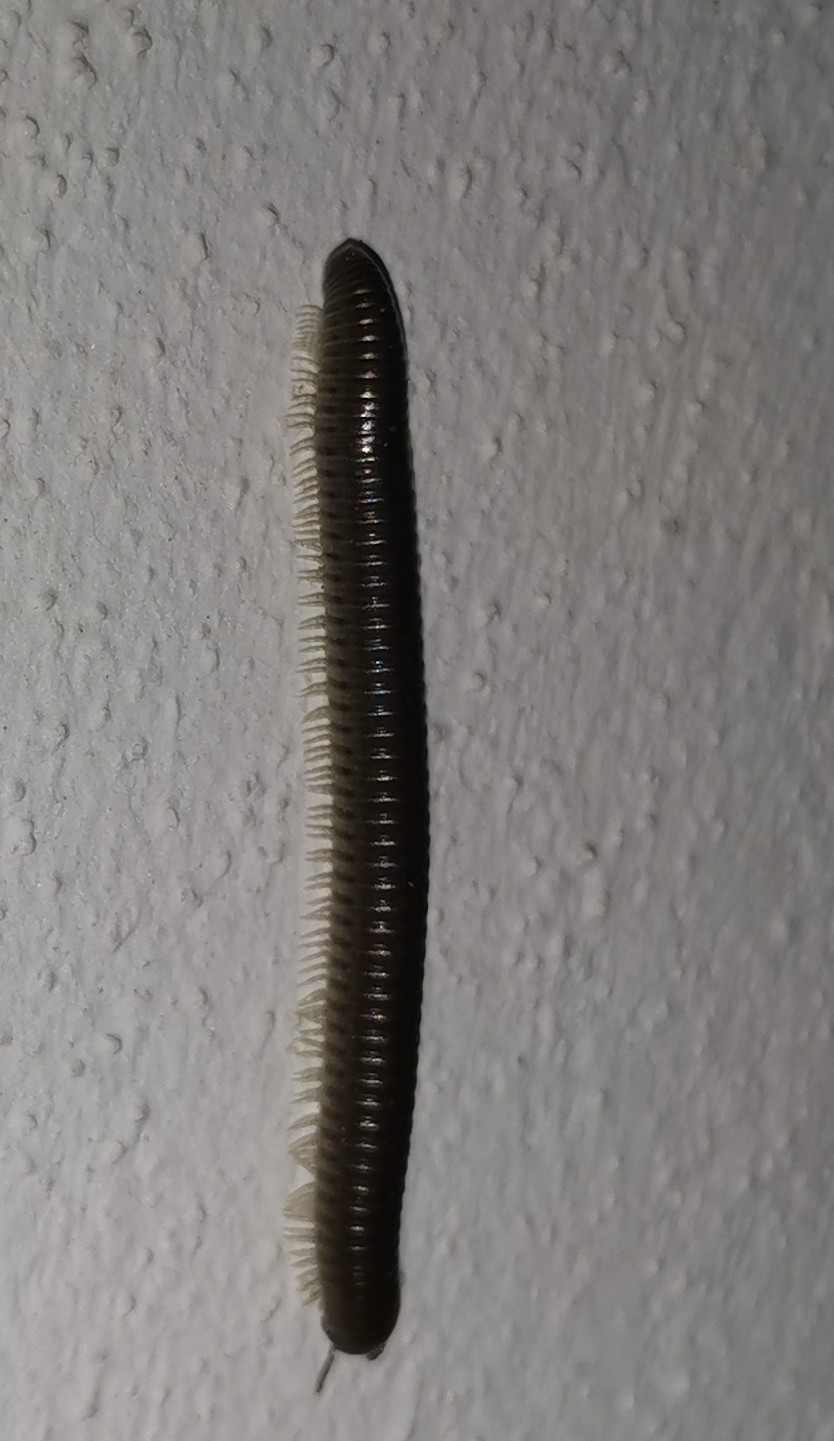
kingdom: Animalia
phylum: Arthropoda
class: Diplopoda
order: Julida
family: Julidae
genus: Pachyiulus
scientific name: Pachyiulus flavipes
